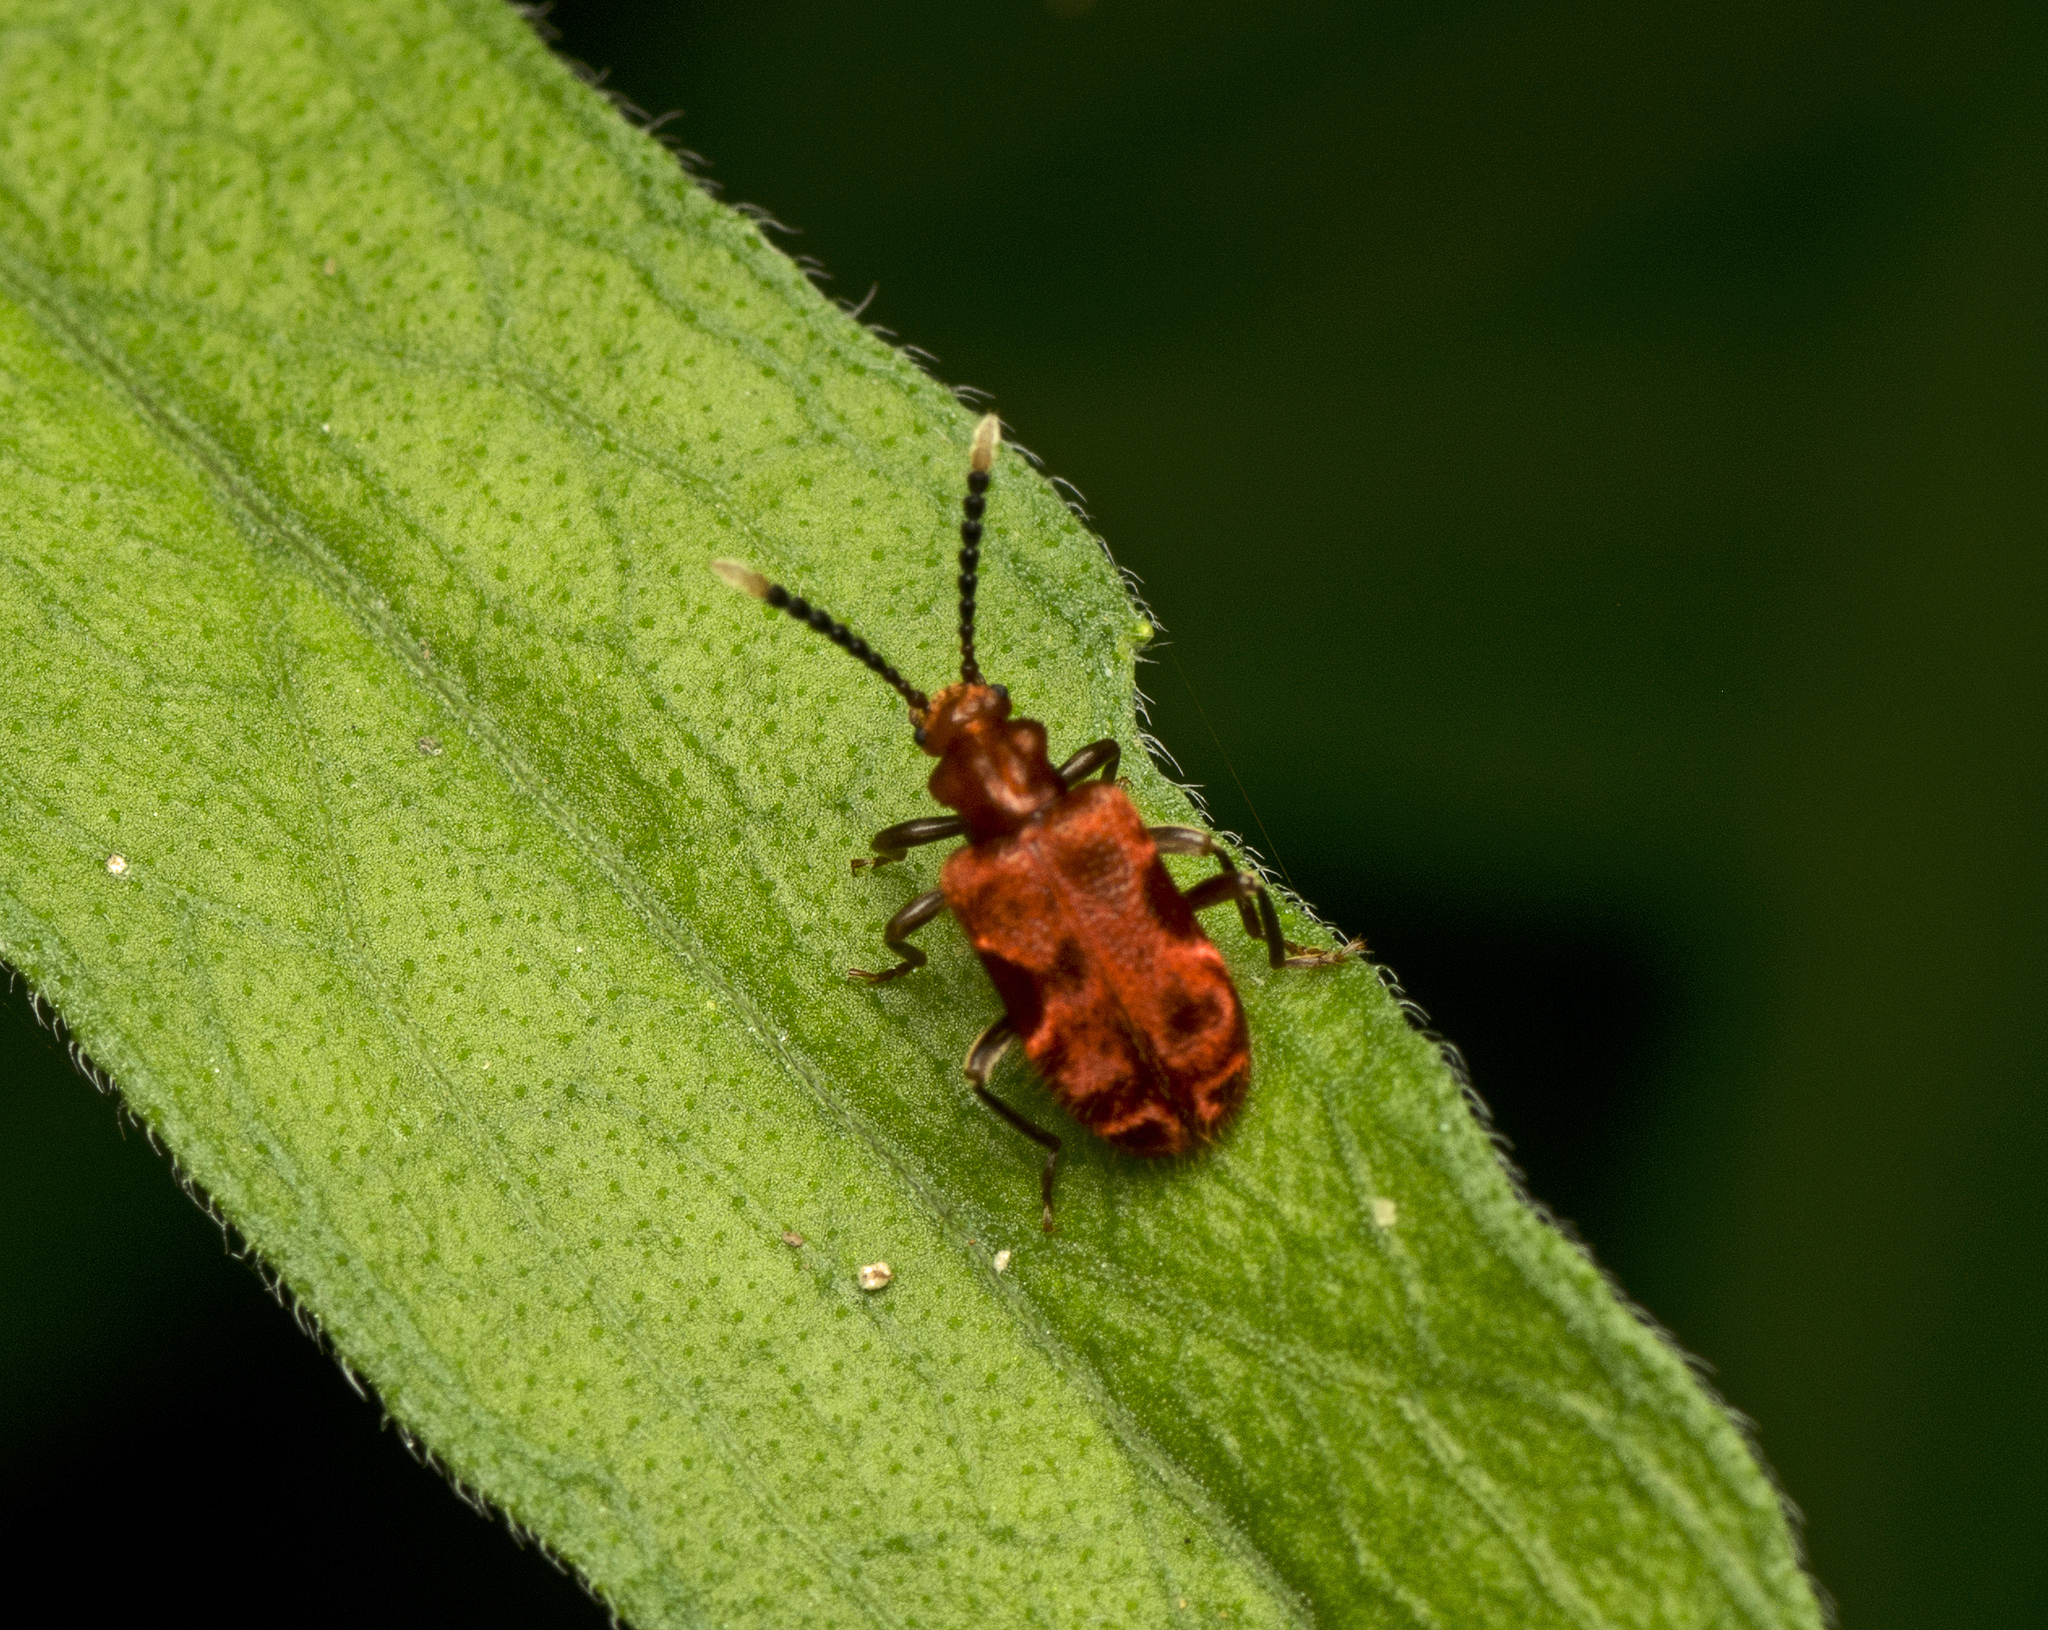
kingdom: Animalia
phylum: Arthropoda
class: Insecta
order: Coleoptera
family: Anthicidae
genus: Lemodes
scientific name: Lemodes
